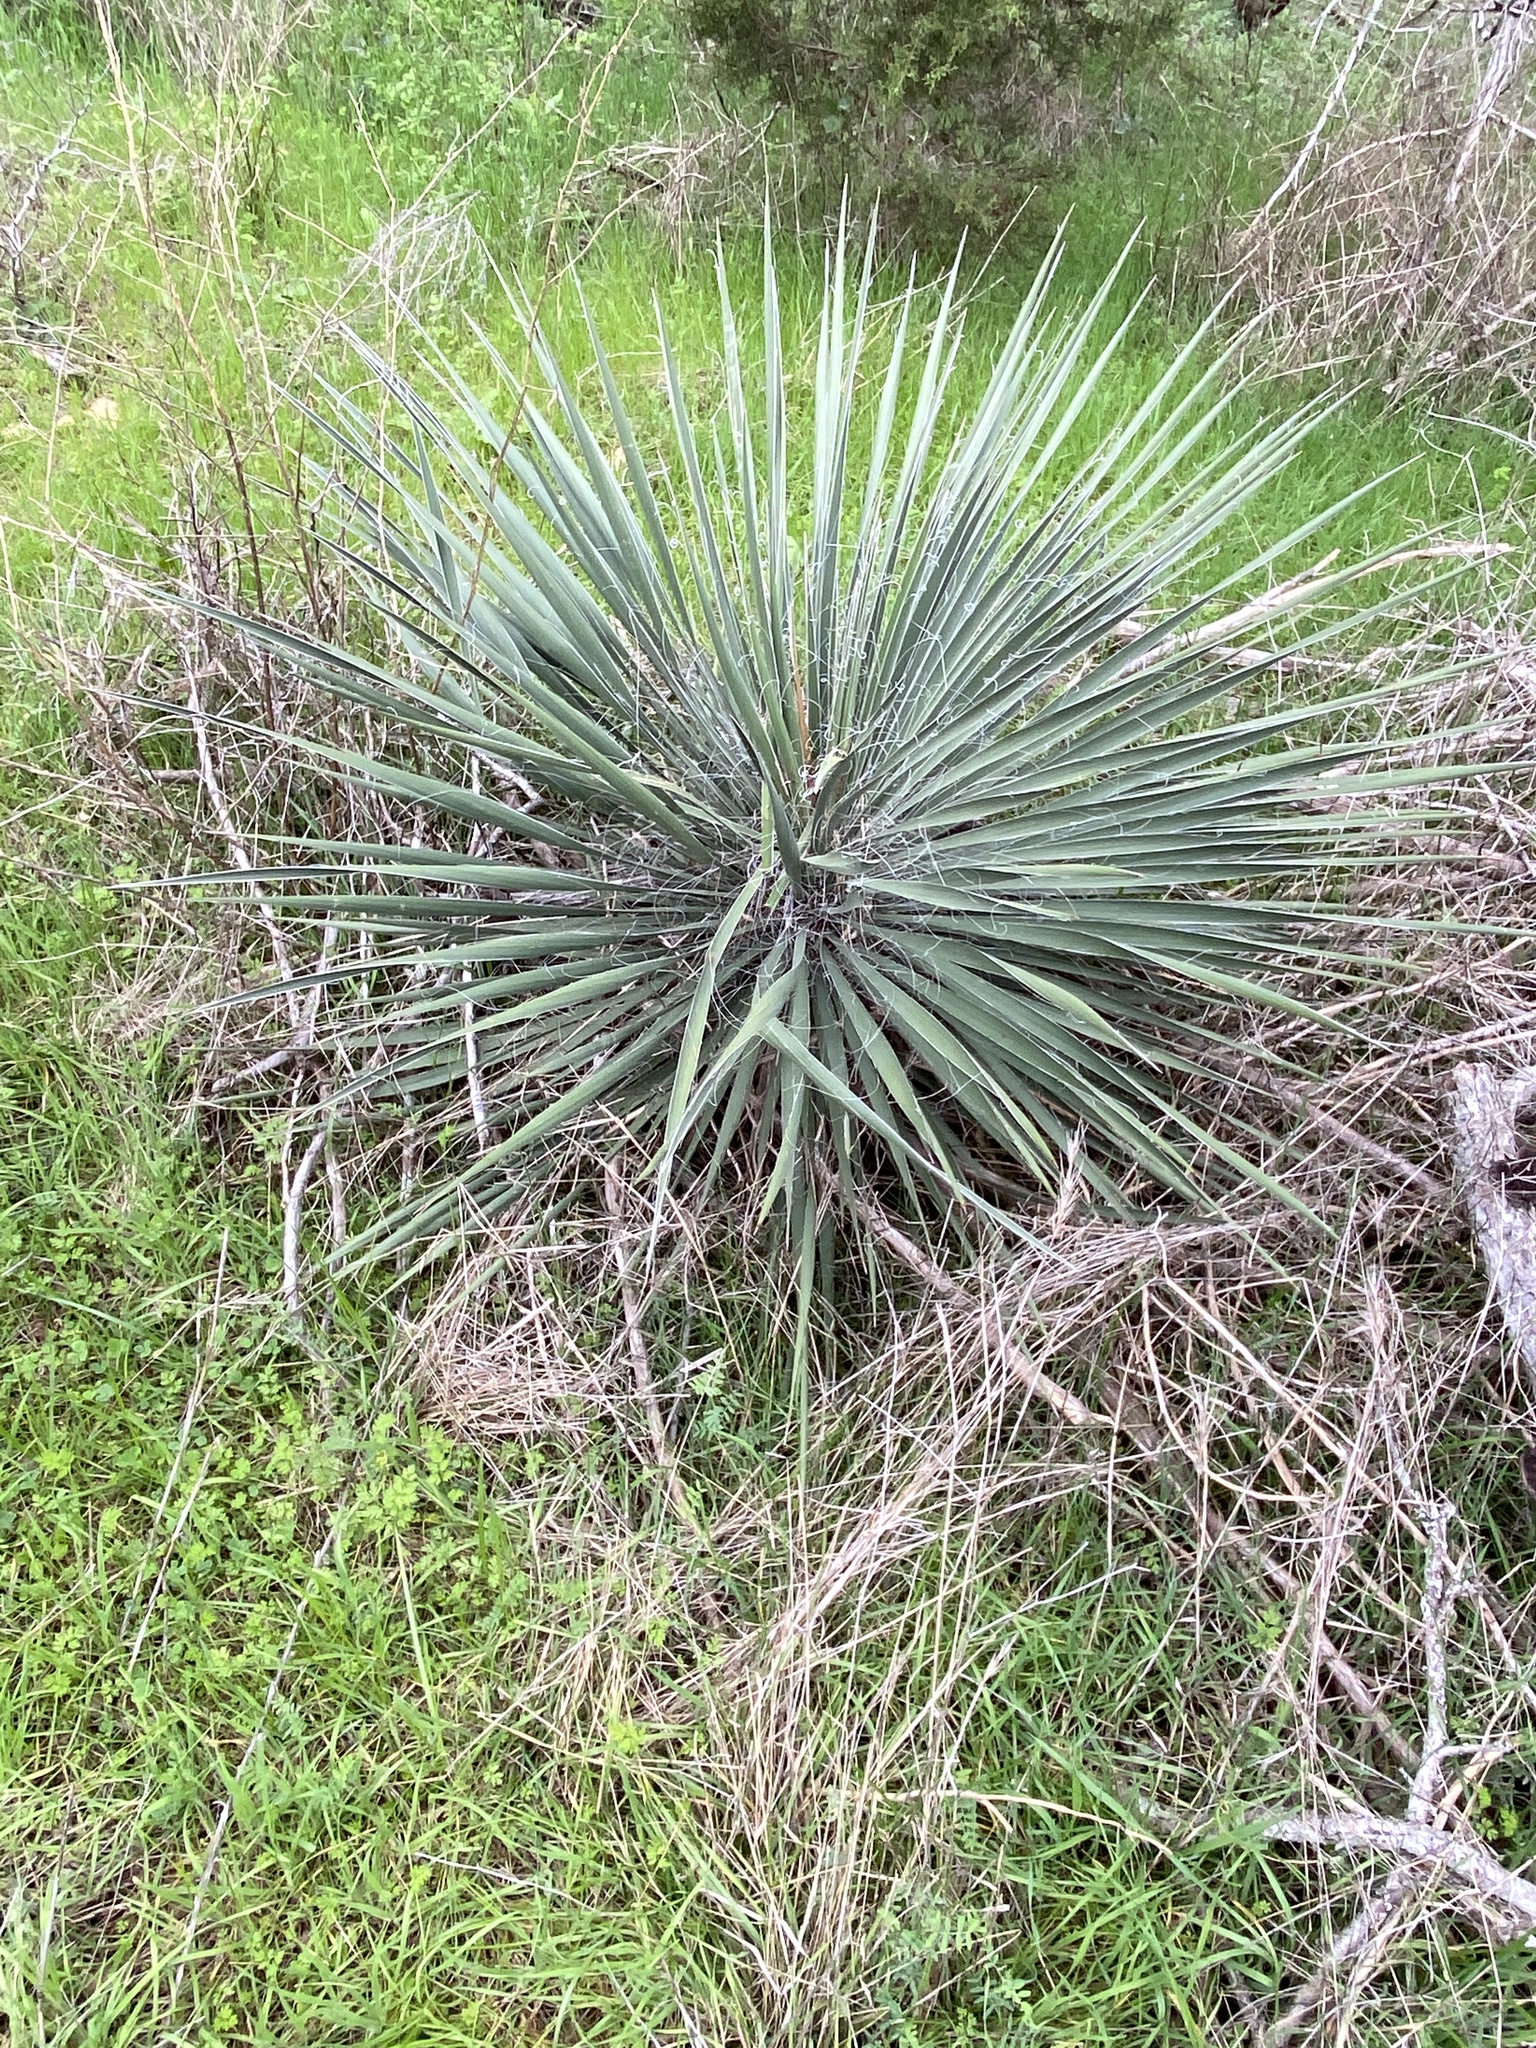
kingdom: Plantae
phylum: Tracheophyta
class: Liliopsida
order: Asparagales
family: Asparagaceae
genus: Yucca
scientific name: Yucca constricta
